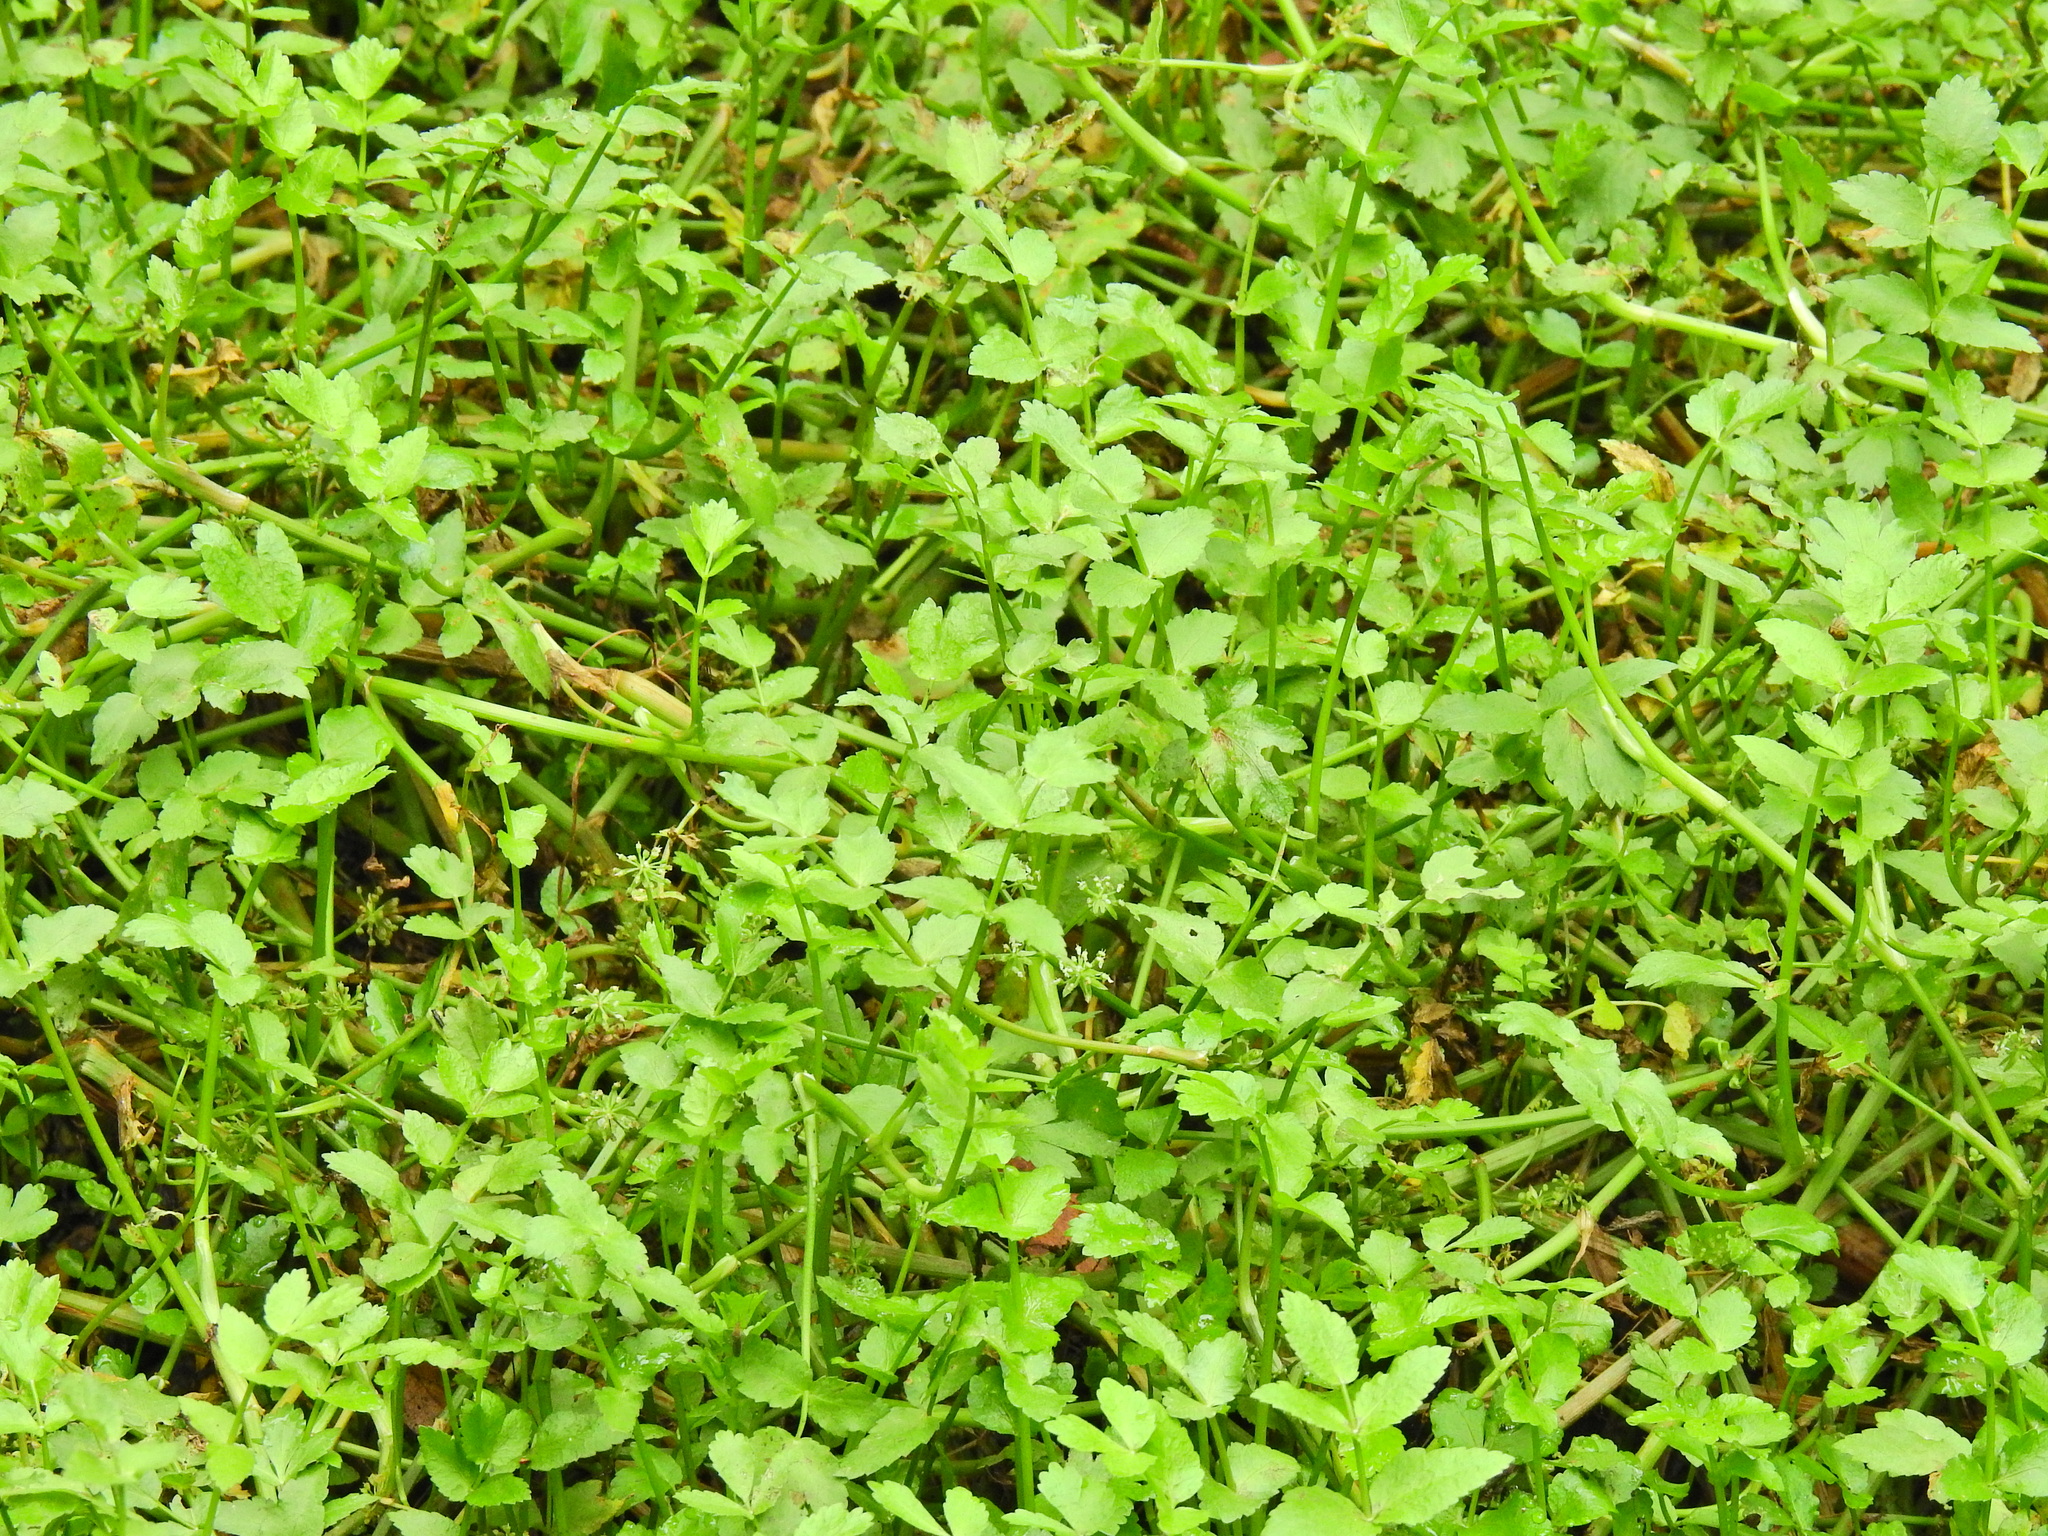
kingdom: Plantae
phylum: Tracheophyta
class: Magnoliopsida
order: Apiales
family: Apiaceae
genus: Helosciadium
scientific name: Helosciadium nodiflorum
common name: Fool's-watercress
